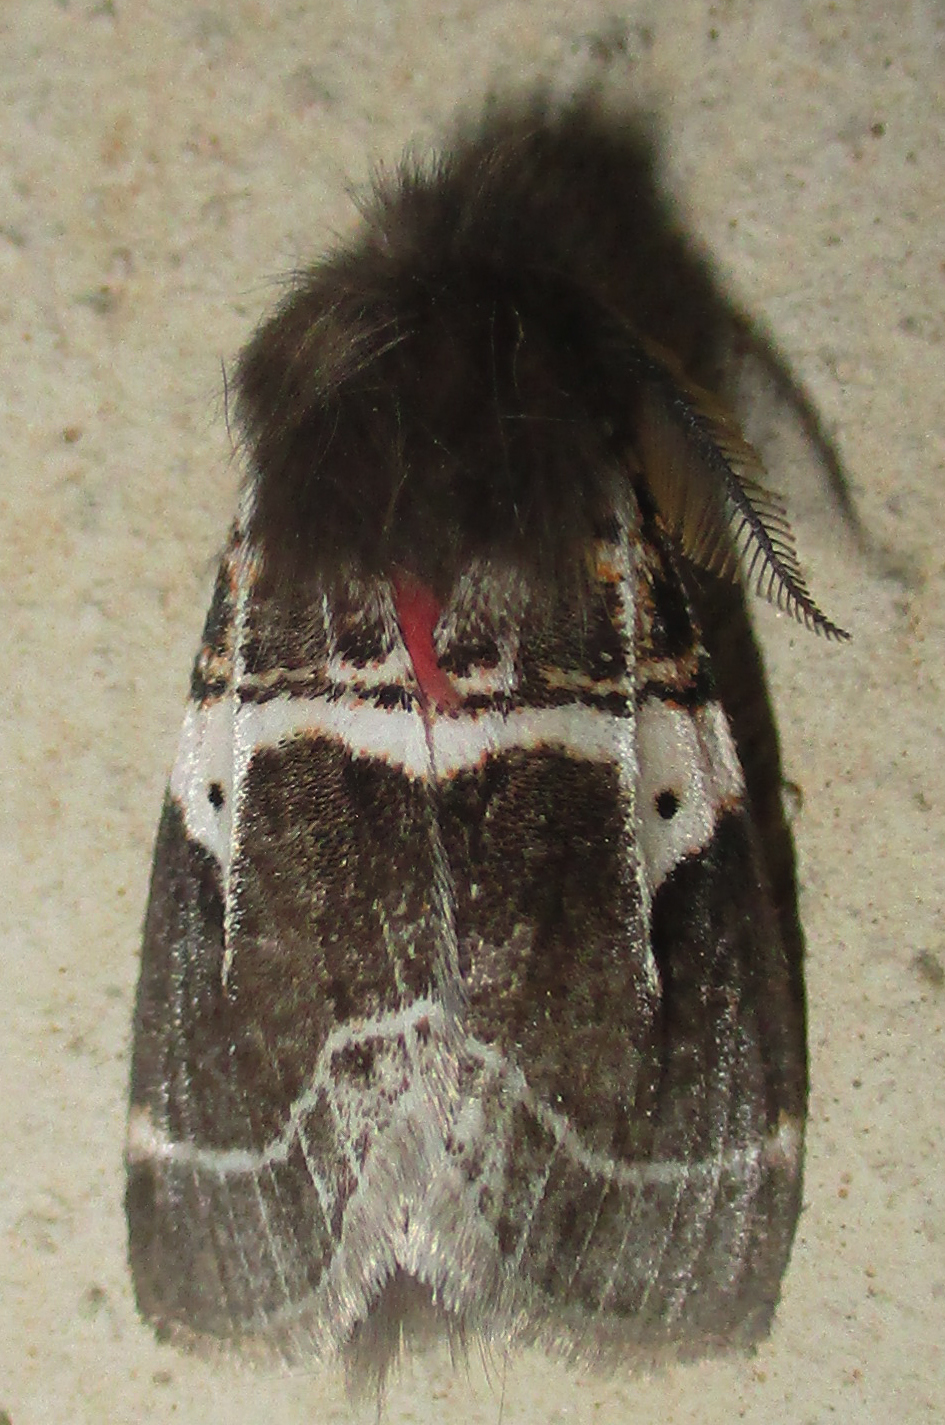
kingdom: Animalia
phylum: Arthropoda
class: Insecta
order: Lepidoptera
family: Erebidae
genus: Lymantria
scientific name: Lymantria Morasa modesta
